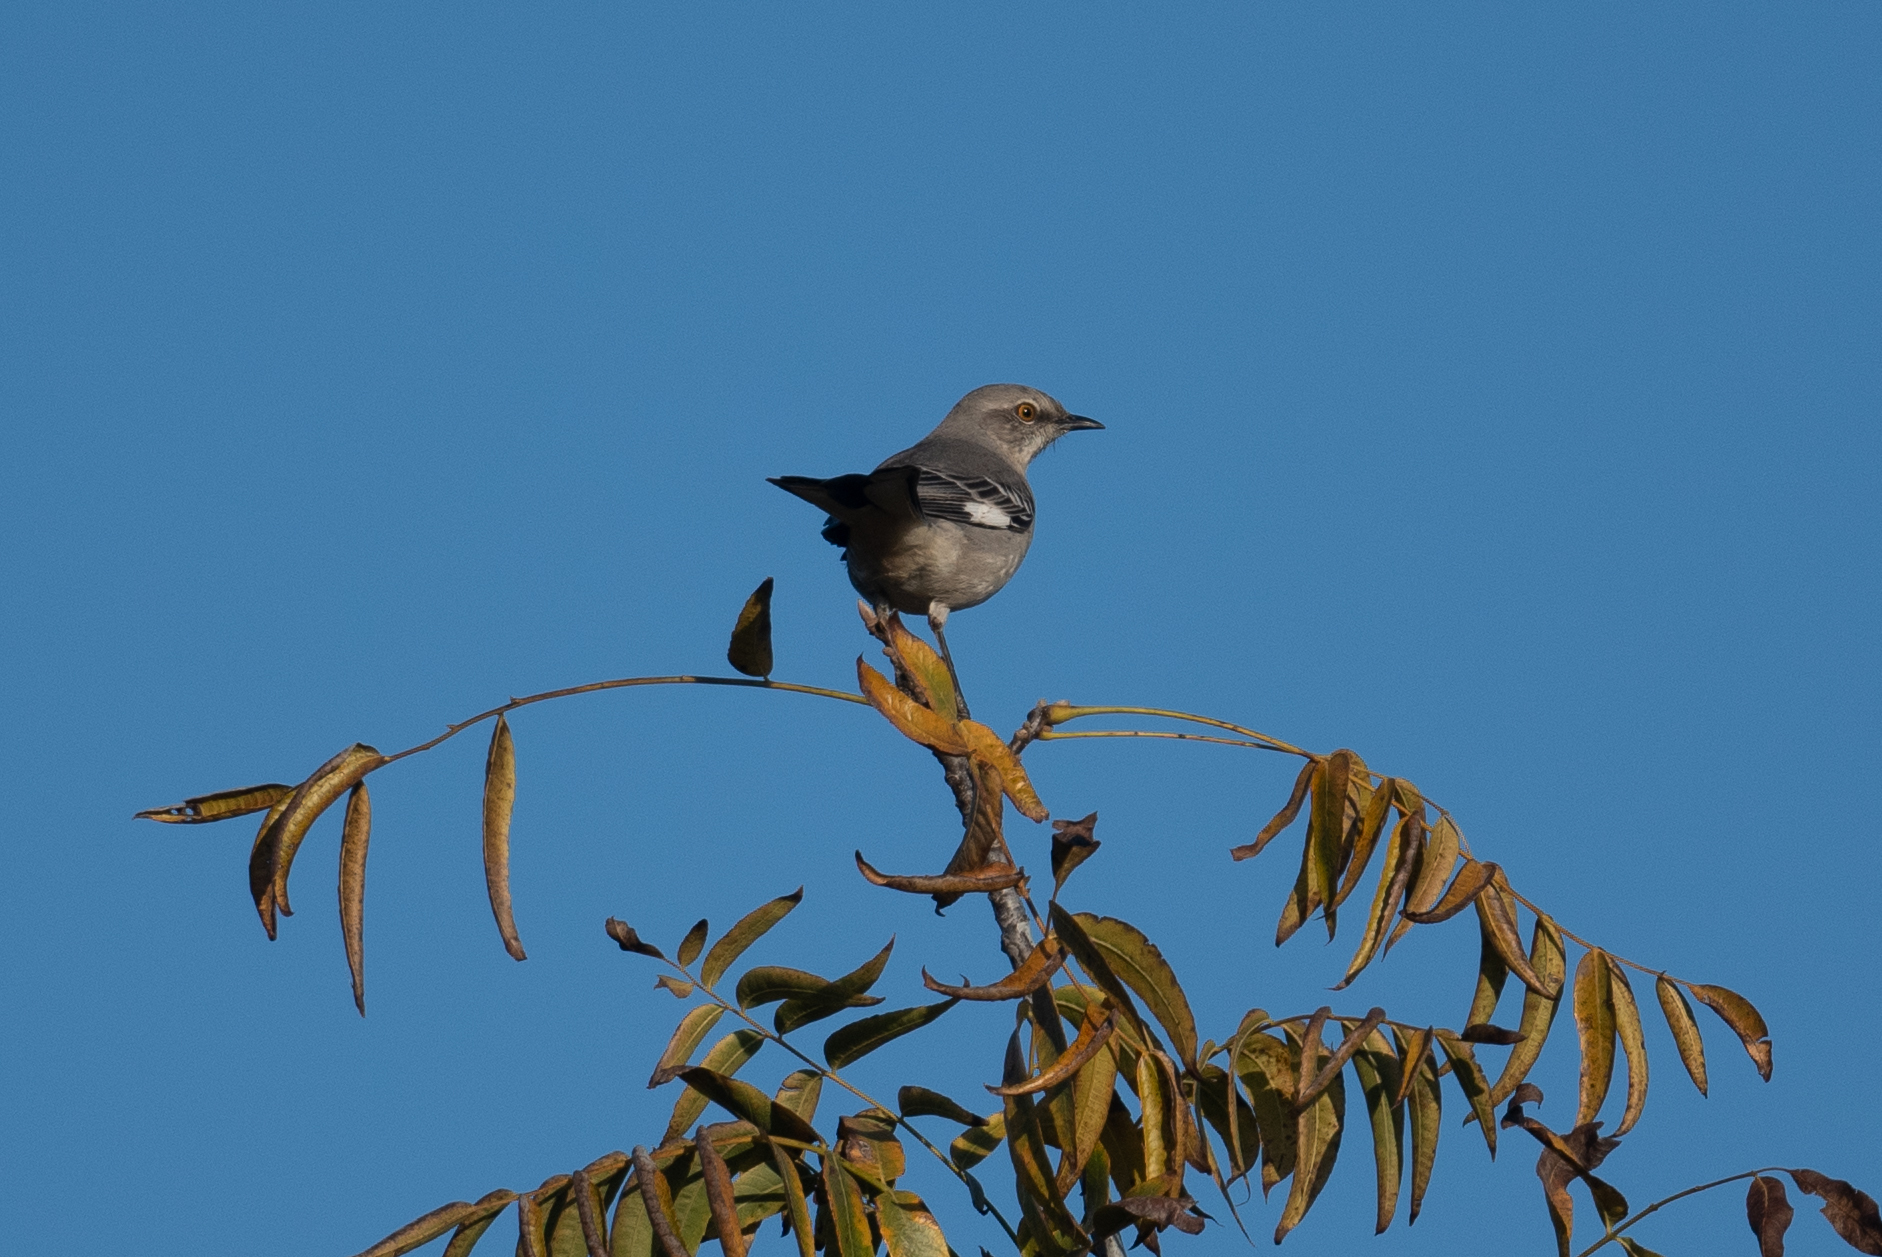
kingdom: Animalia
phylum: Chordata
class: Aves
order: Passeriformes
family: Mimidae
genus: Mimus
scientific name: Mimus polyglottos
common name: Northern mockingbird
